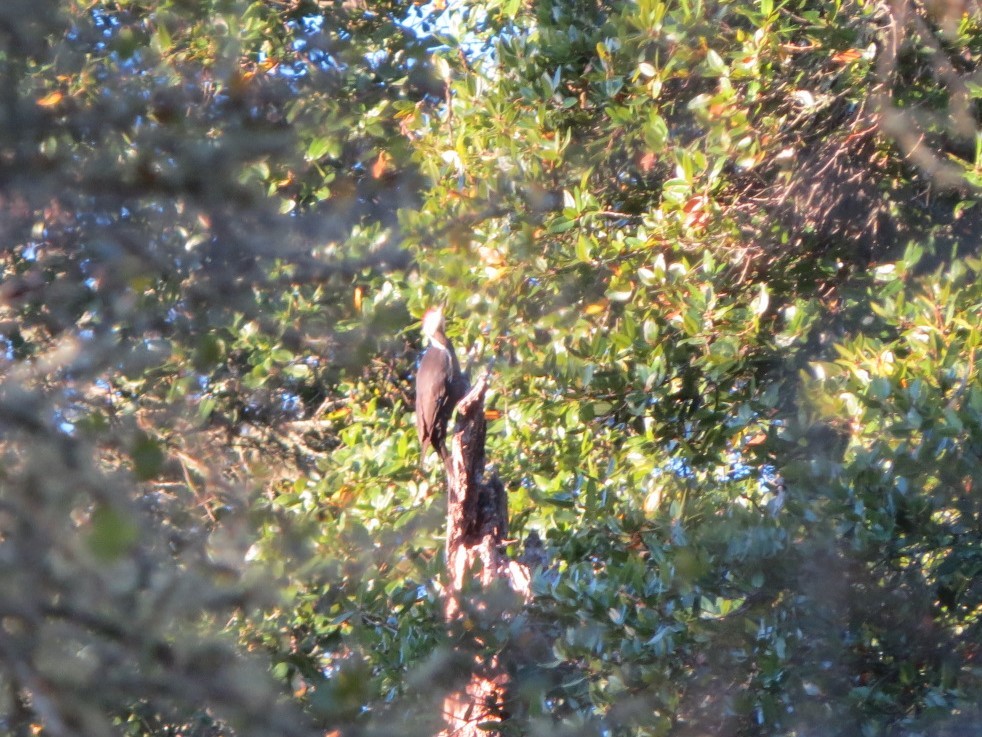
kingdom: Animalia
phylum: Chordata
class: Aves
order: Piciformes
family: Picidae
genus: Dryocopus
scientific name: Dryocopus pileatus
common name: Pileated woodpecker
